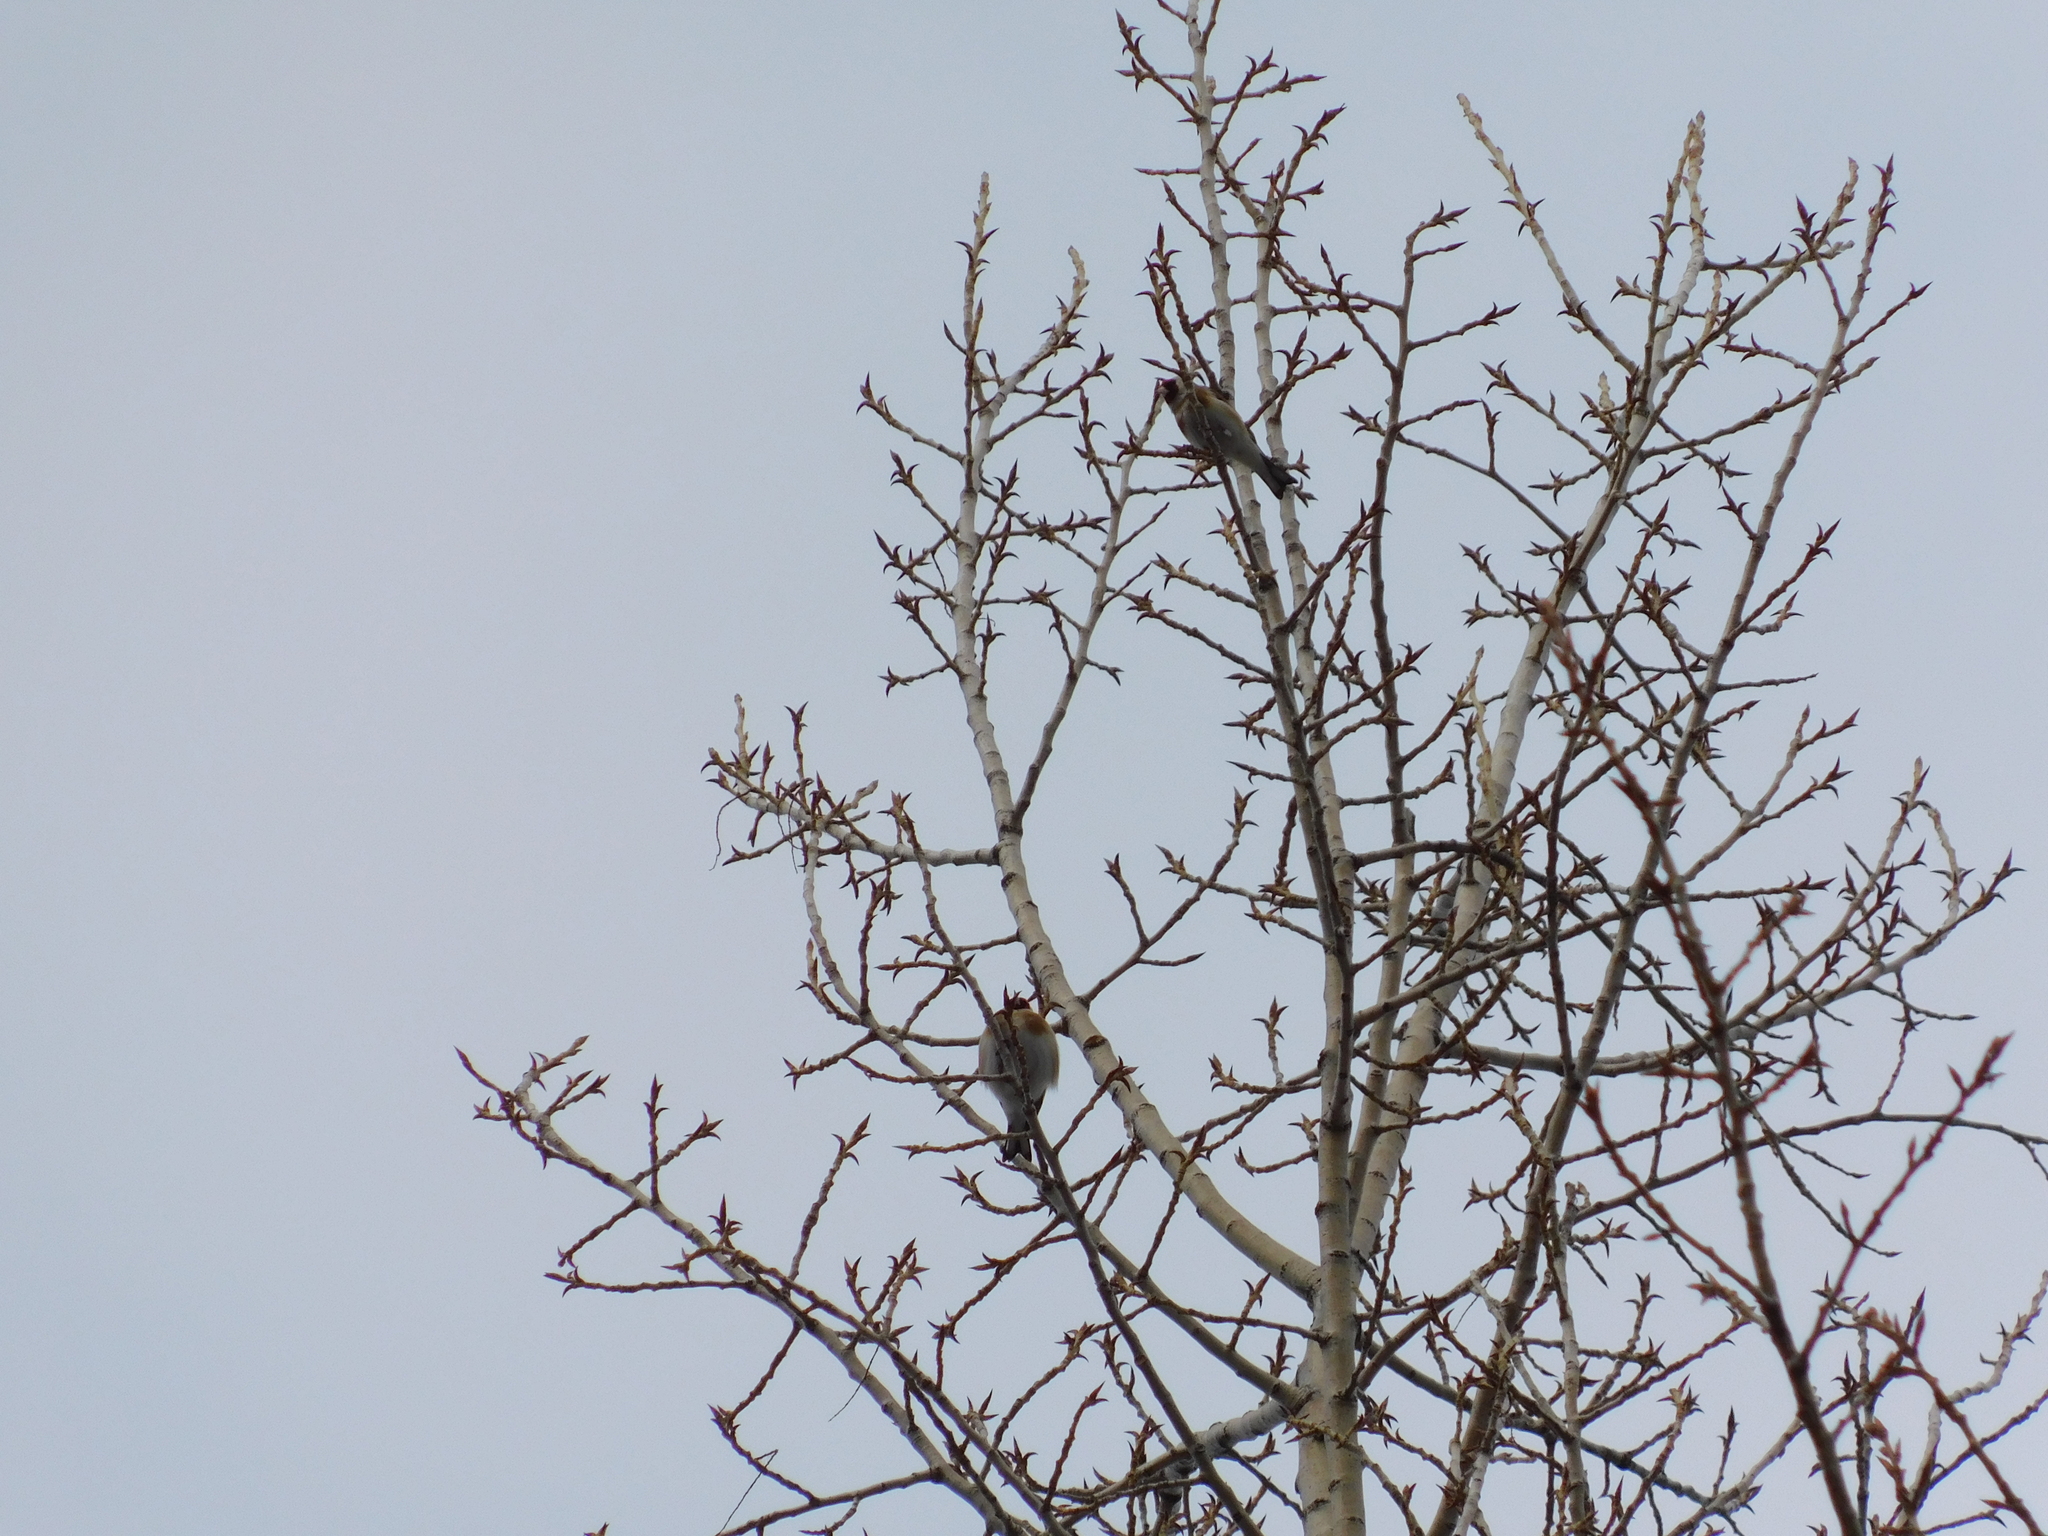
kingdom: Animalia
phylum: Chordata
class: Aves
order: Passeriformes
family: Fringillidae
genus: Carduelis
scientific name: Carduelis carduelis
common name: European goldfinch
